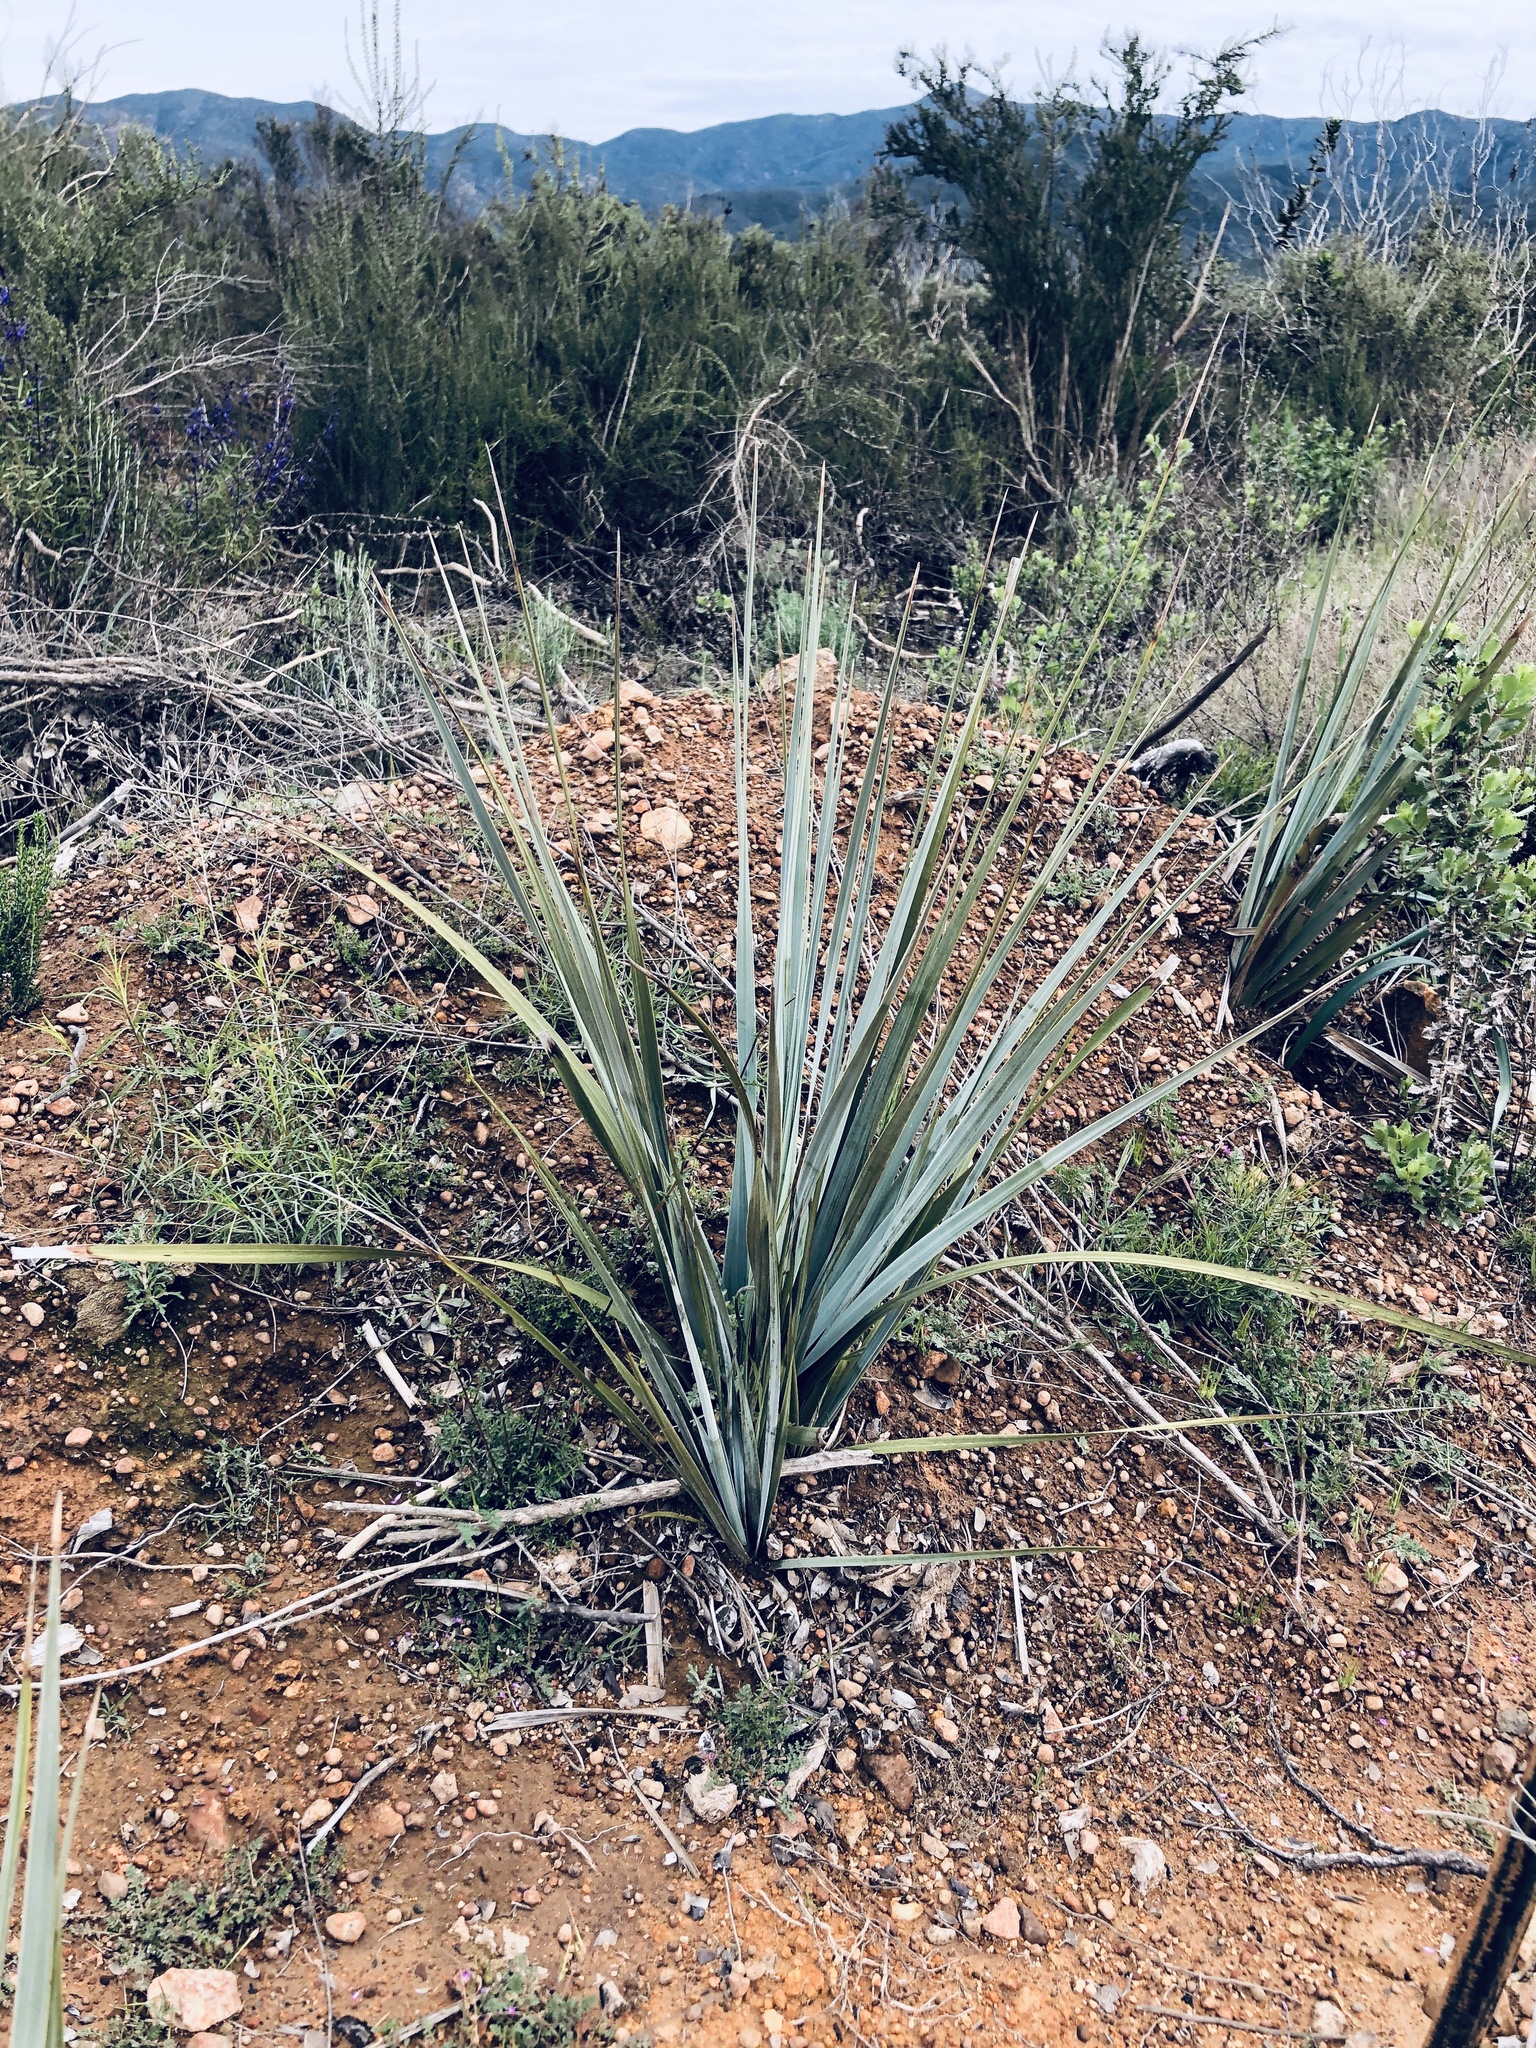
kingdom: Plantae
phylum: Tracheophyta
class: Liliopsida
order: Asparagales
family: Asparagaceae
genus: Nolina
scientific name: Nolina interrata
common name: Dehesa bear-grass
